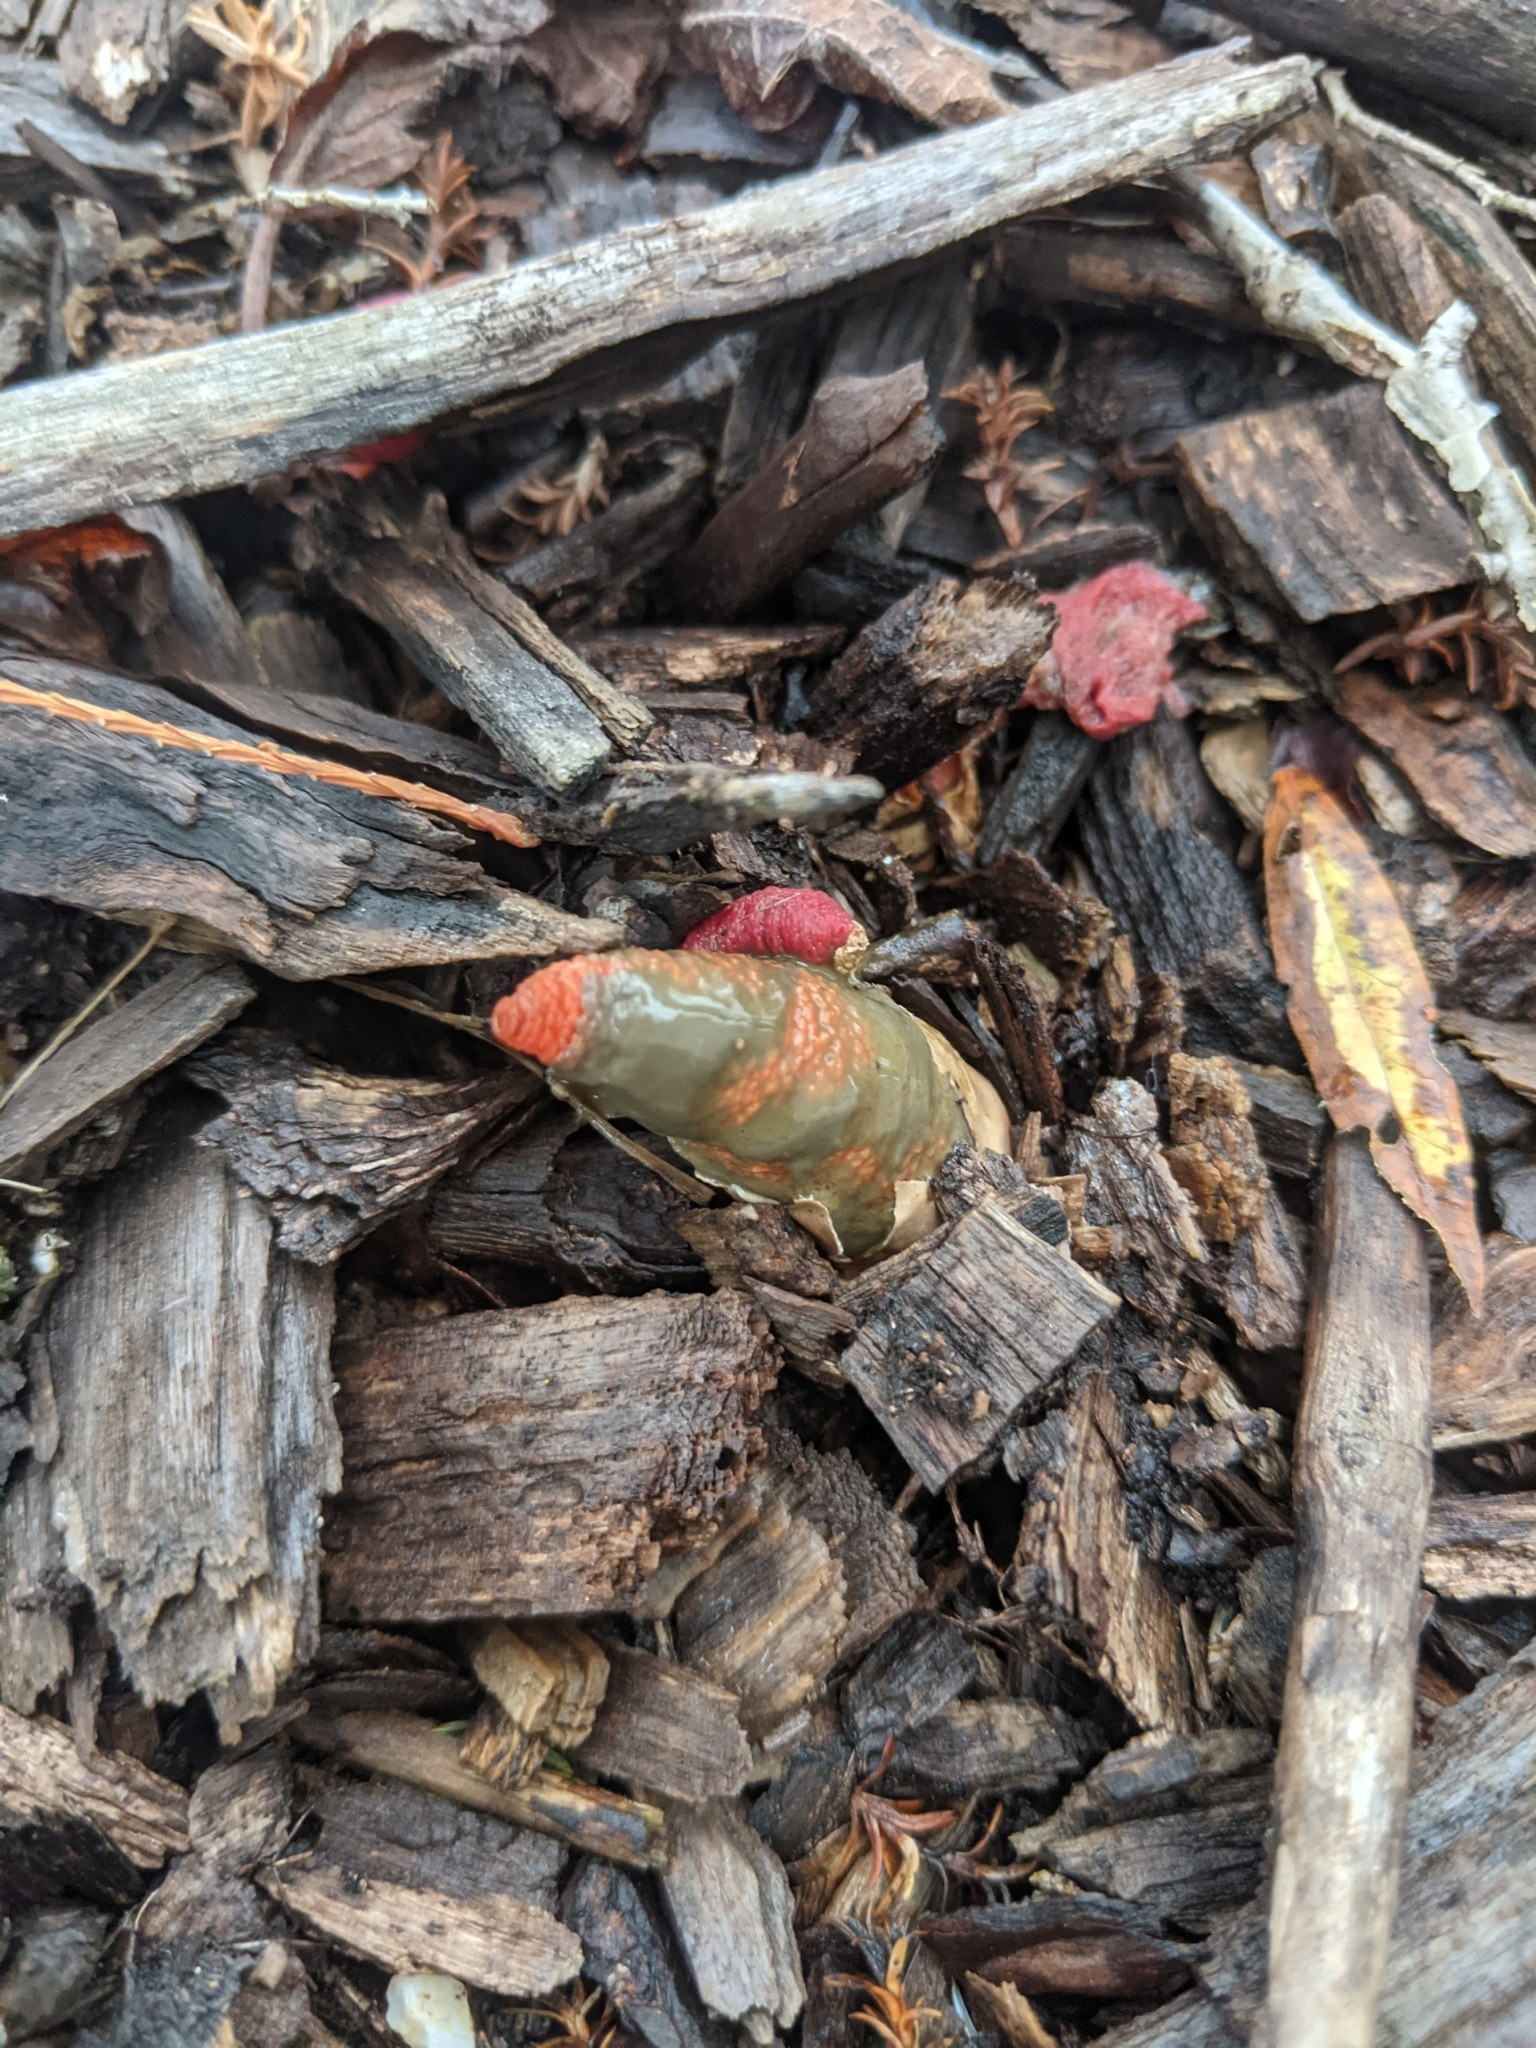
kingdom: Fungi
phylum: Basidiomycota
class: Agaricomycetes
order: Phallales
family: Phallaceae
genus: Mutinus
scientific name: Mutinus elegans
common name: Devil's dipstick
